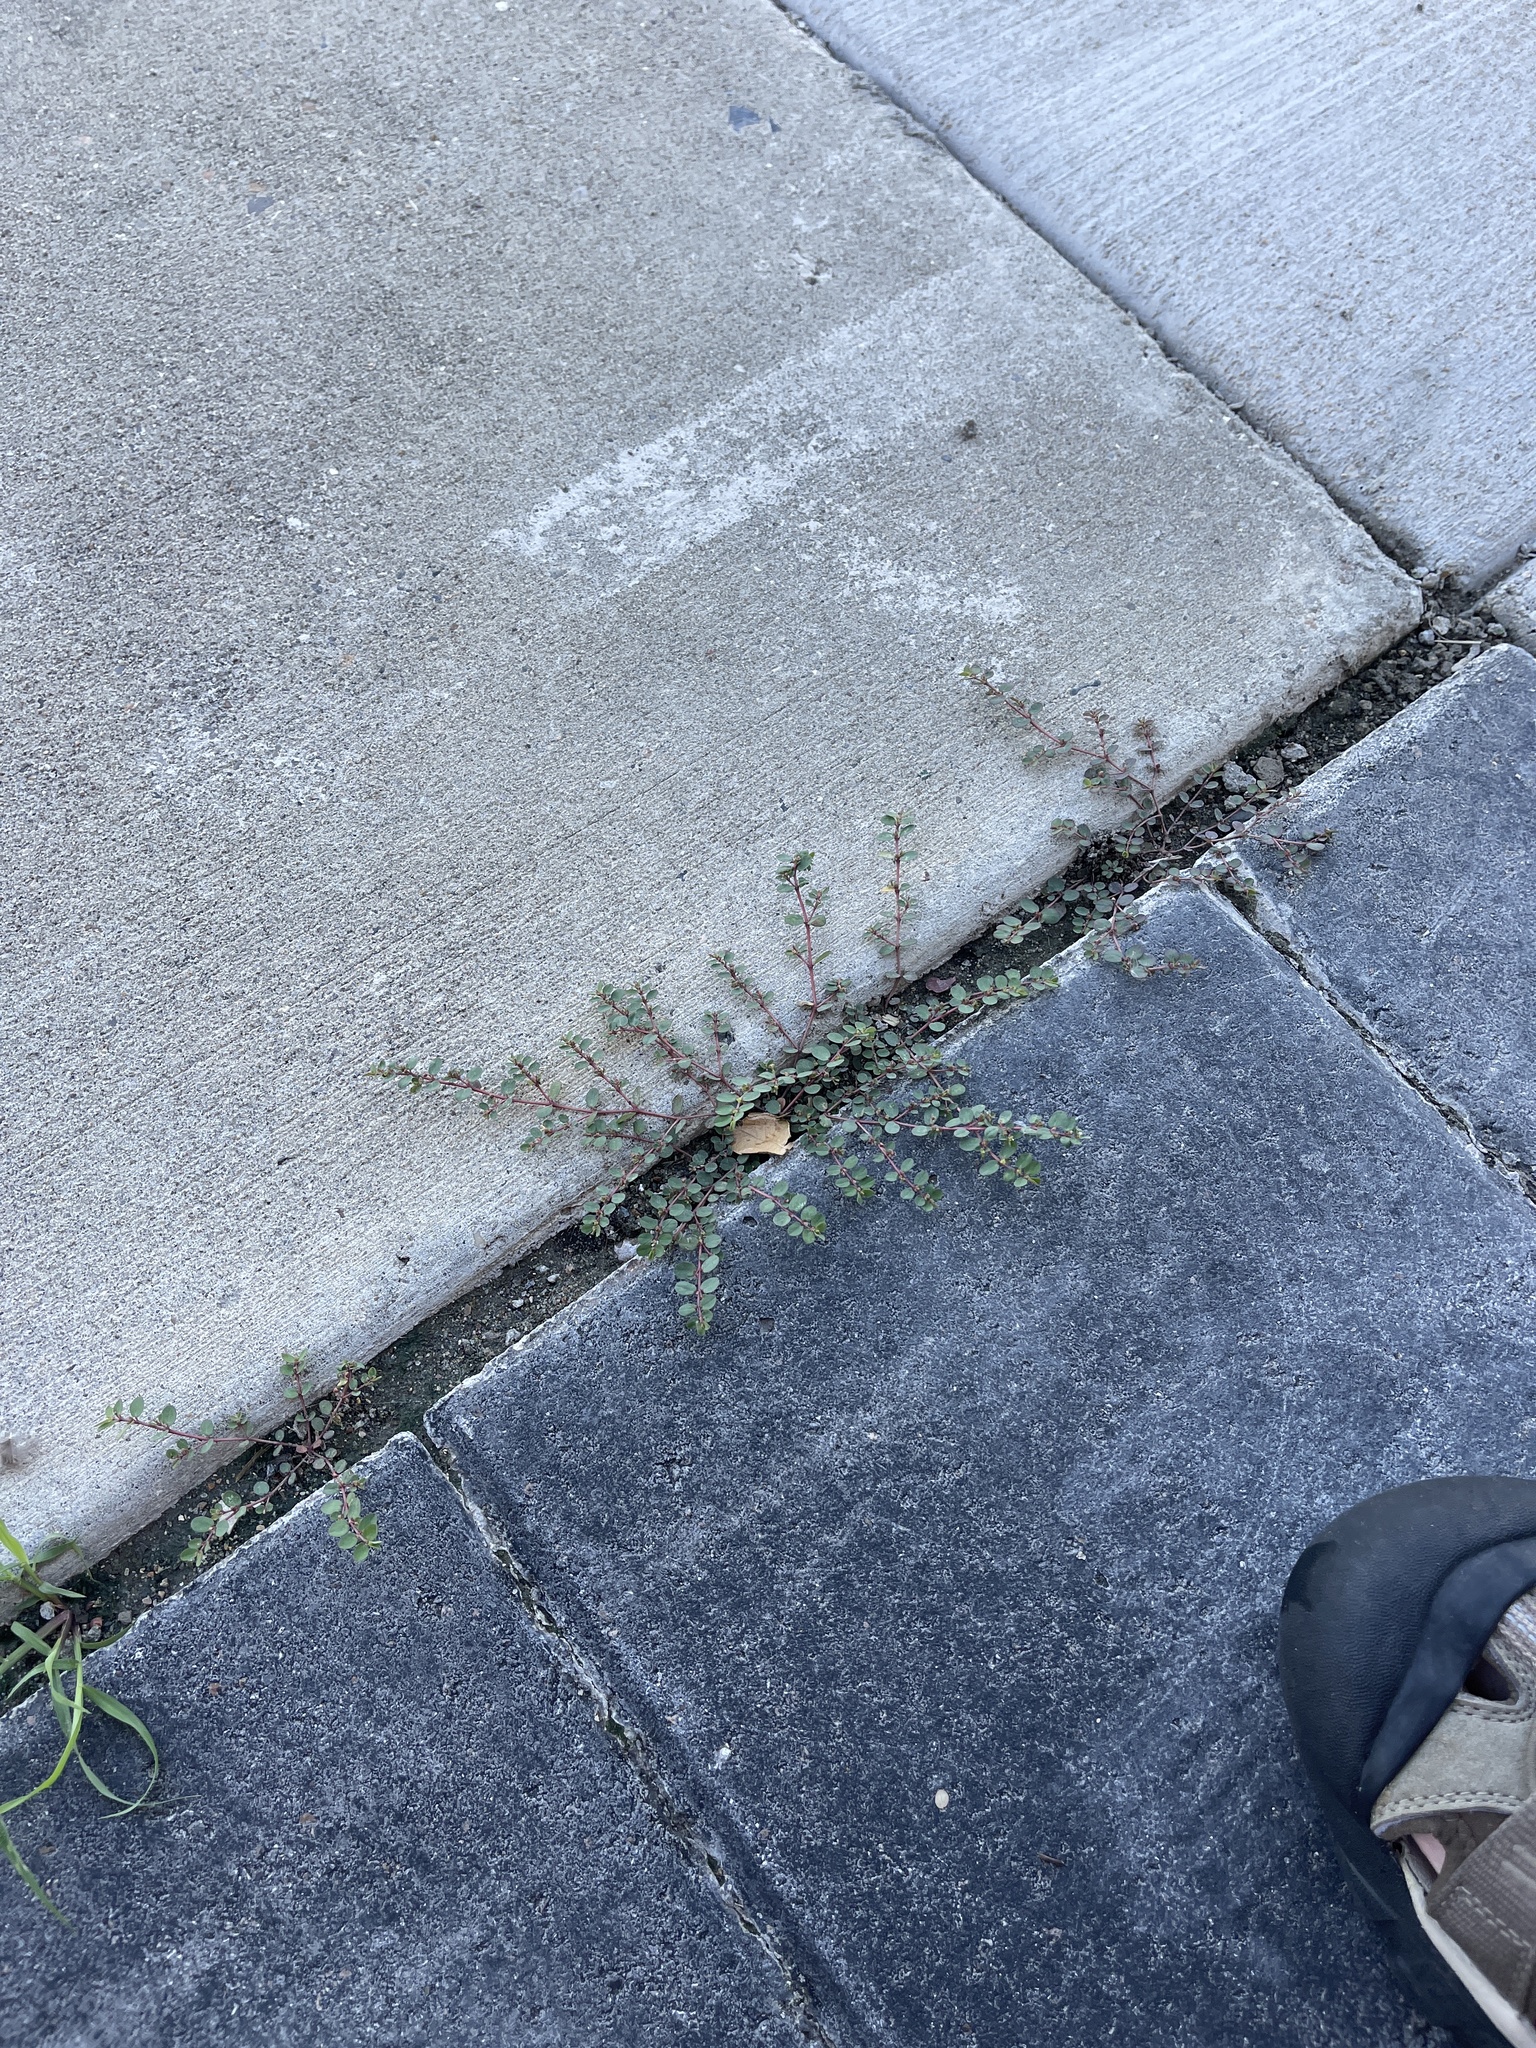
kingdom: Plantae
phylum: Tracheophyta
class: Magnoliopsida
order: Malpighiales
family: Euphorbiaceae
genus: Euphorbia
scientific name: Euphorbia prostrata
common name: Prostrate sandmat
